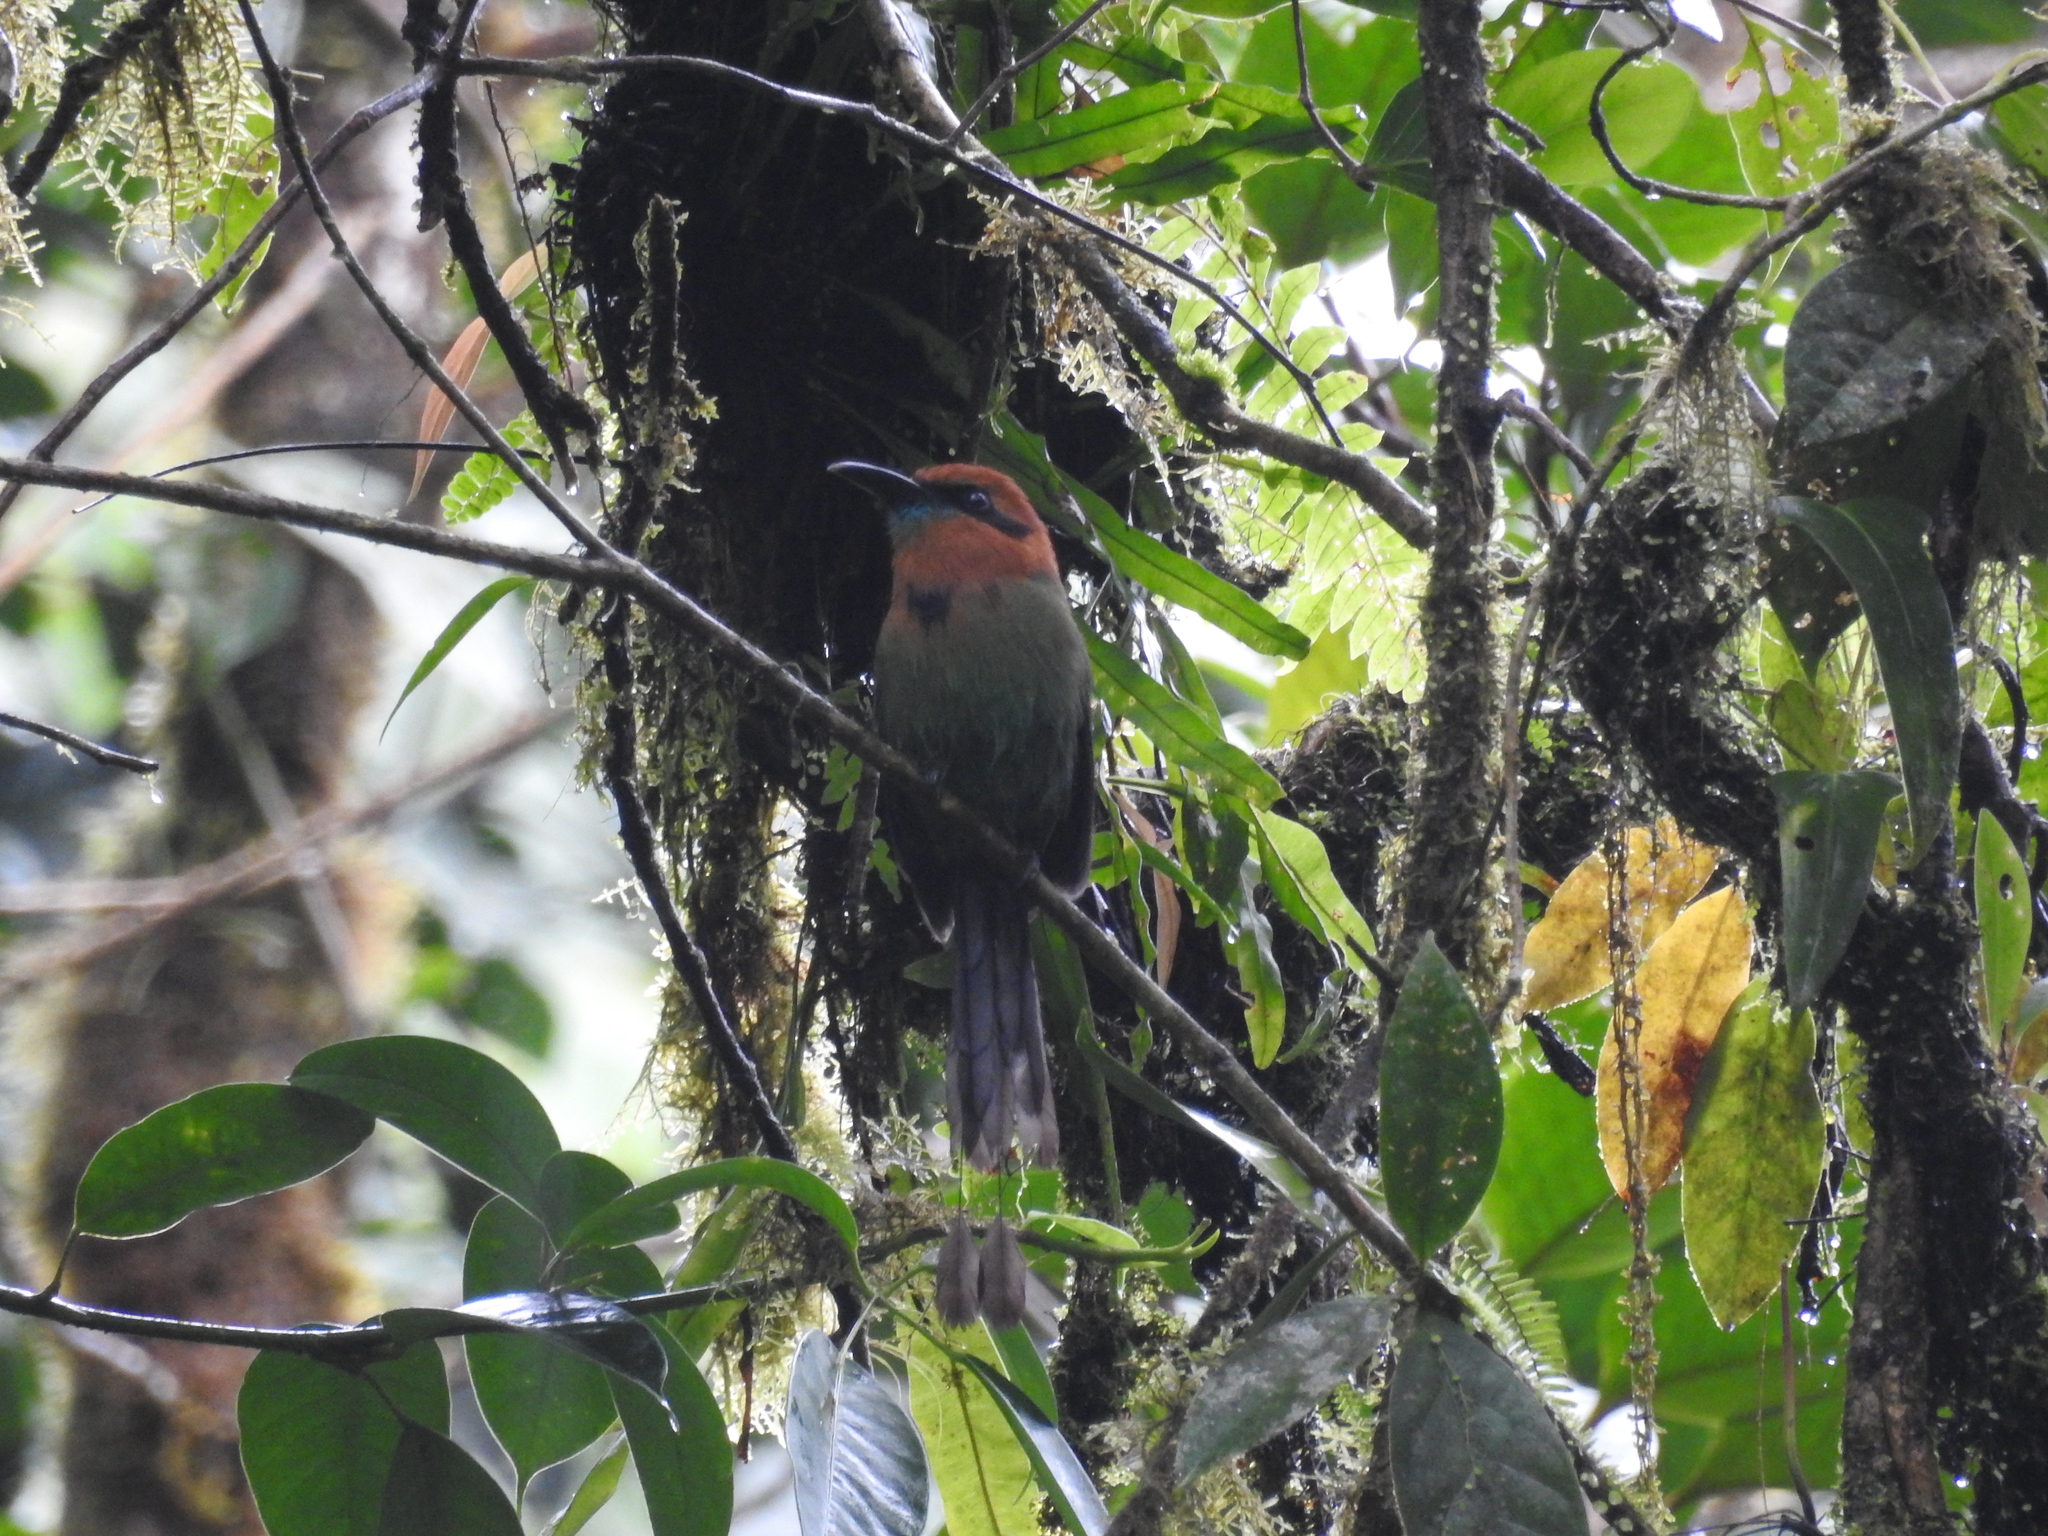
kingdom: Animalia
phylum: Chordata
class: Aves
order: Coraciiformes
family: Momotidae
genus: Electron
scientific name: Electron platyrhynchum
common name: Broad-billed motmot
